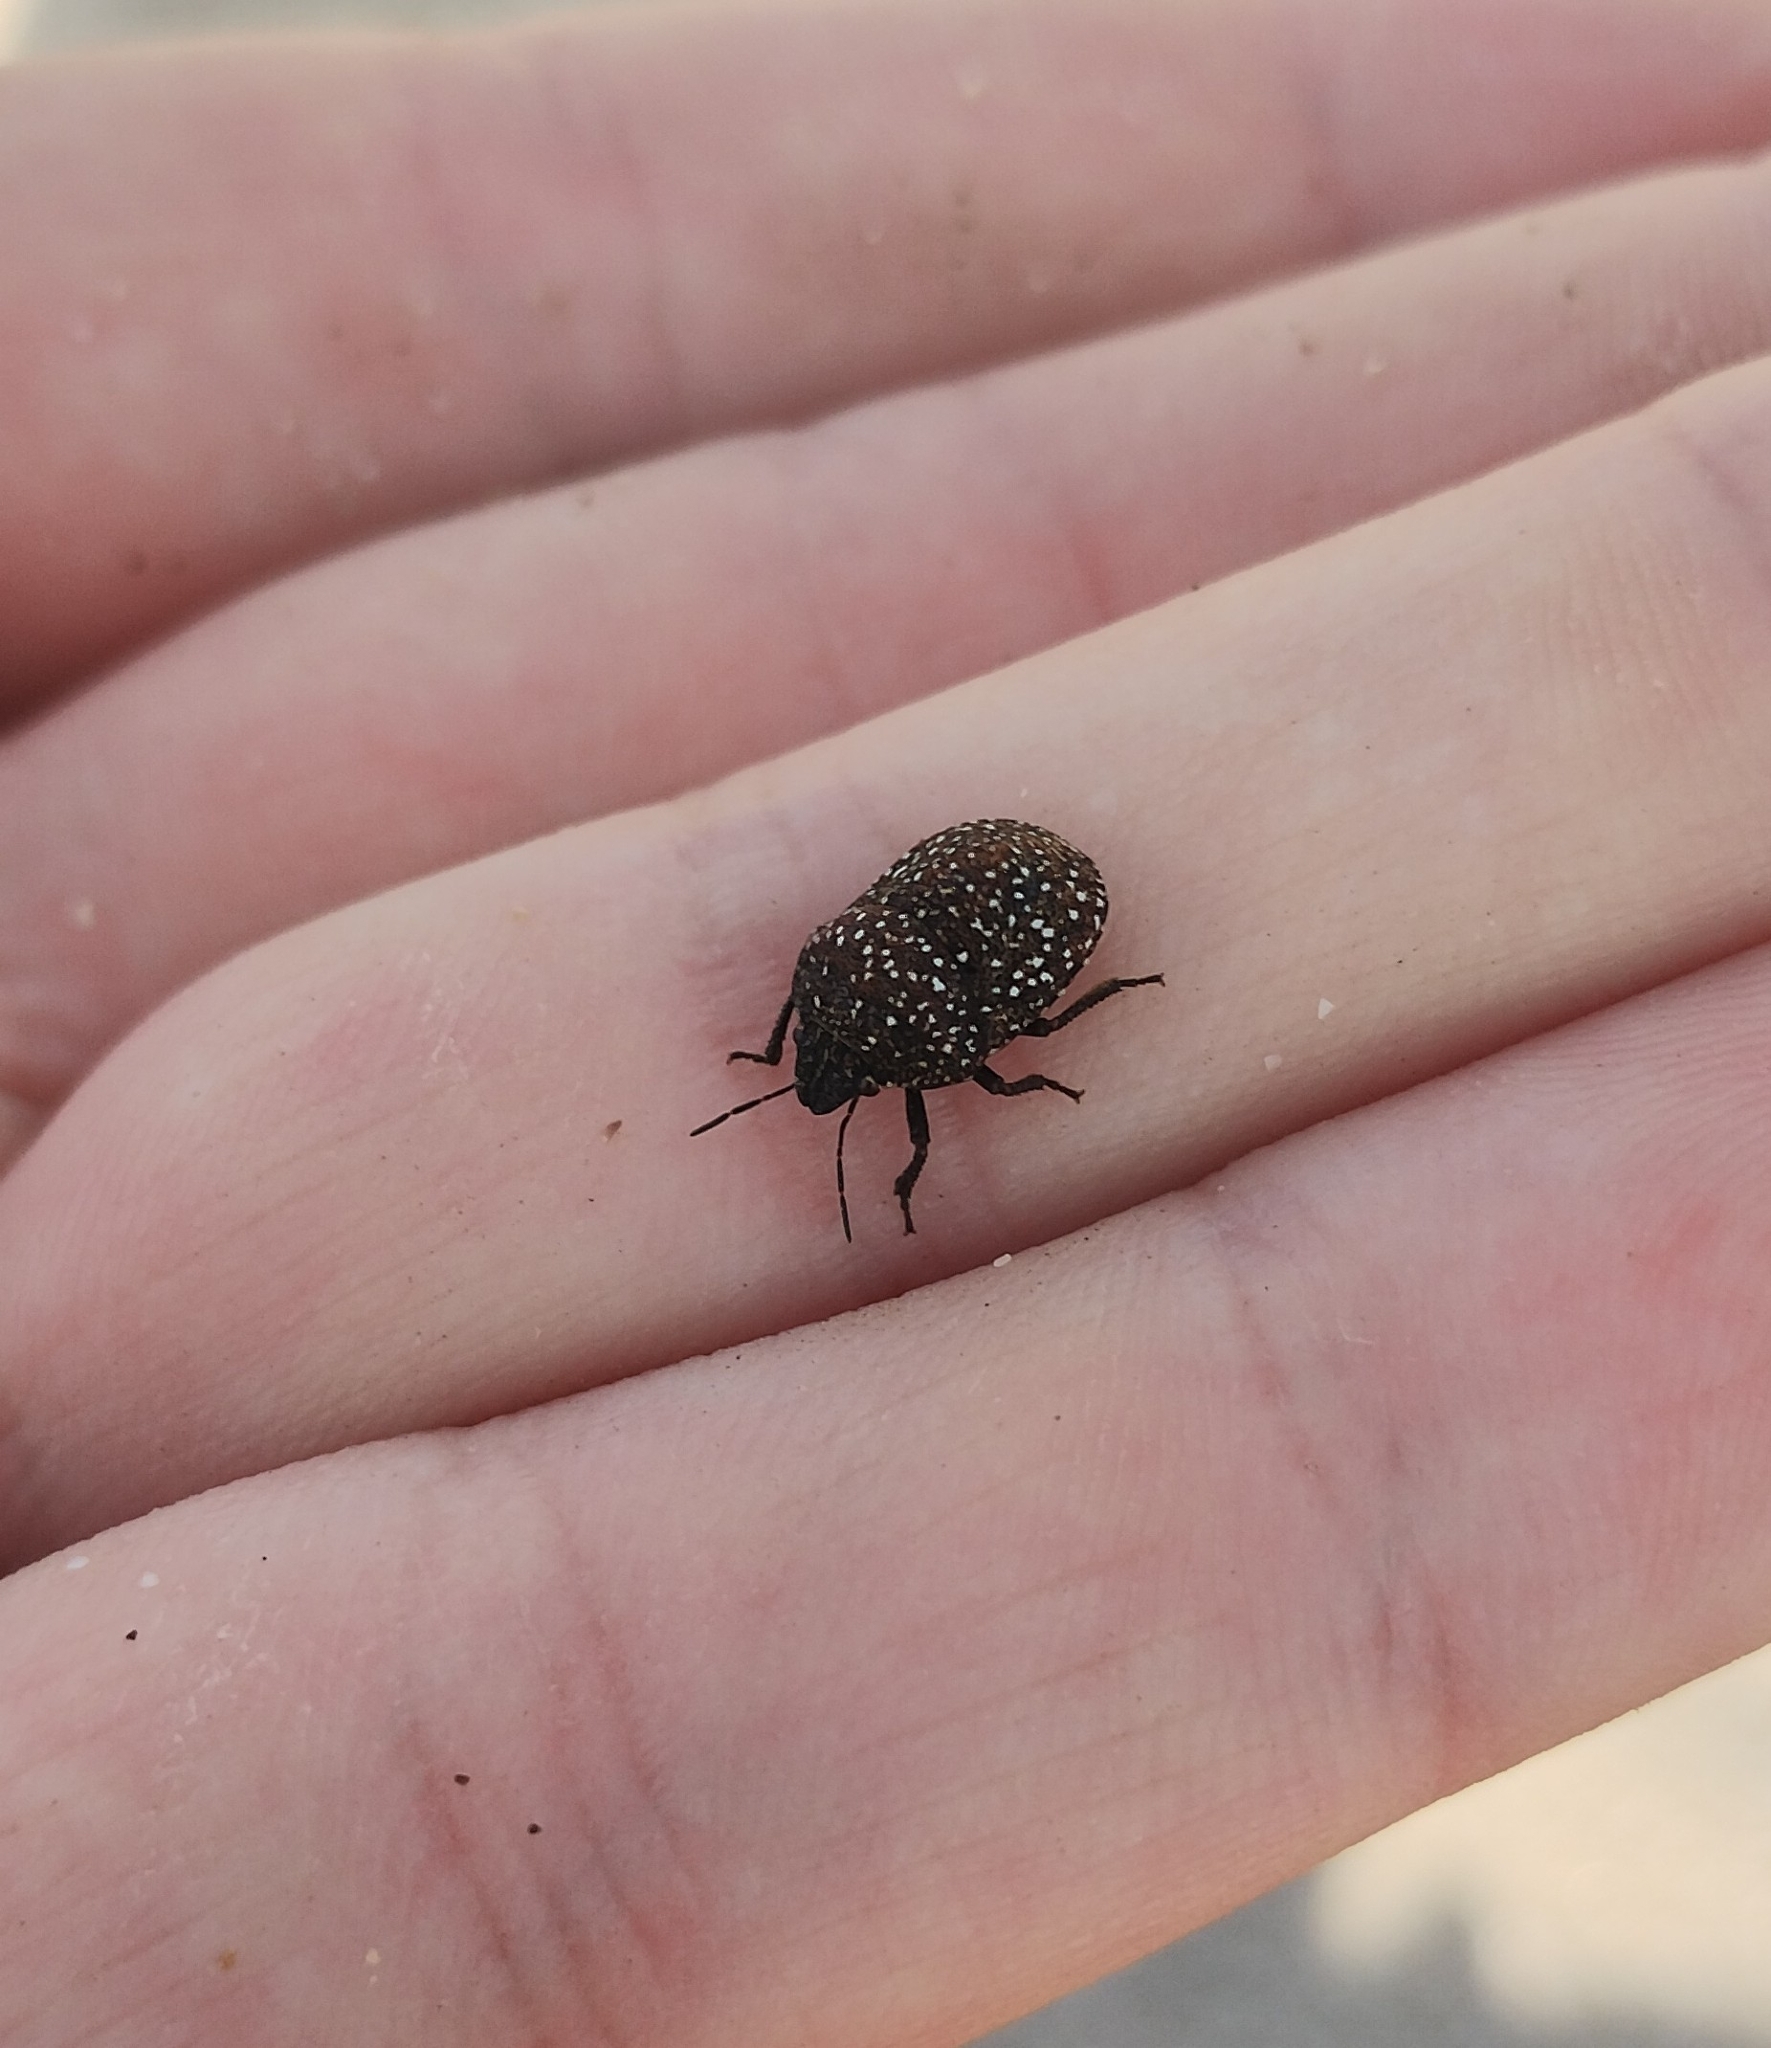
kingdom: Animalia
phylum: Arthropoda
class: Insecta
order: Hemiptera
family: Scutelleridae
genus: Psacasta
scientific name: Psacasta exanthematica
